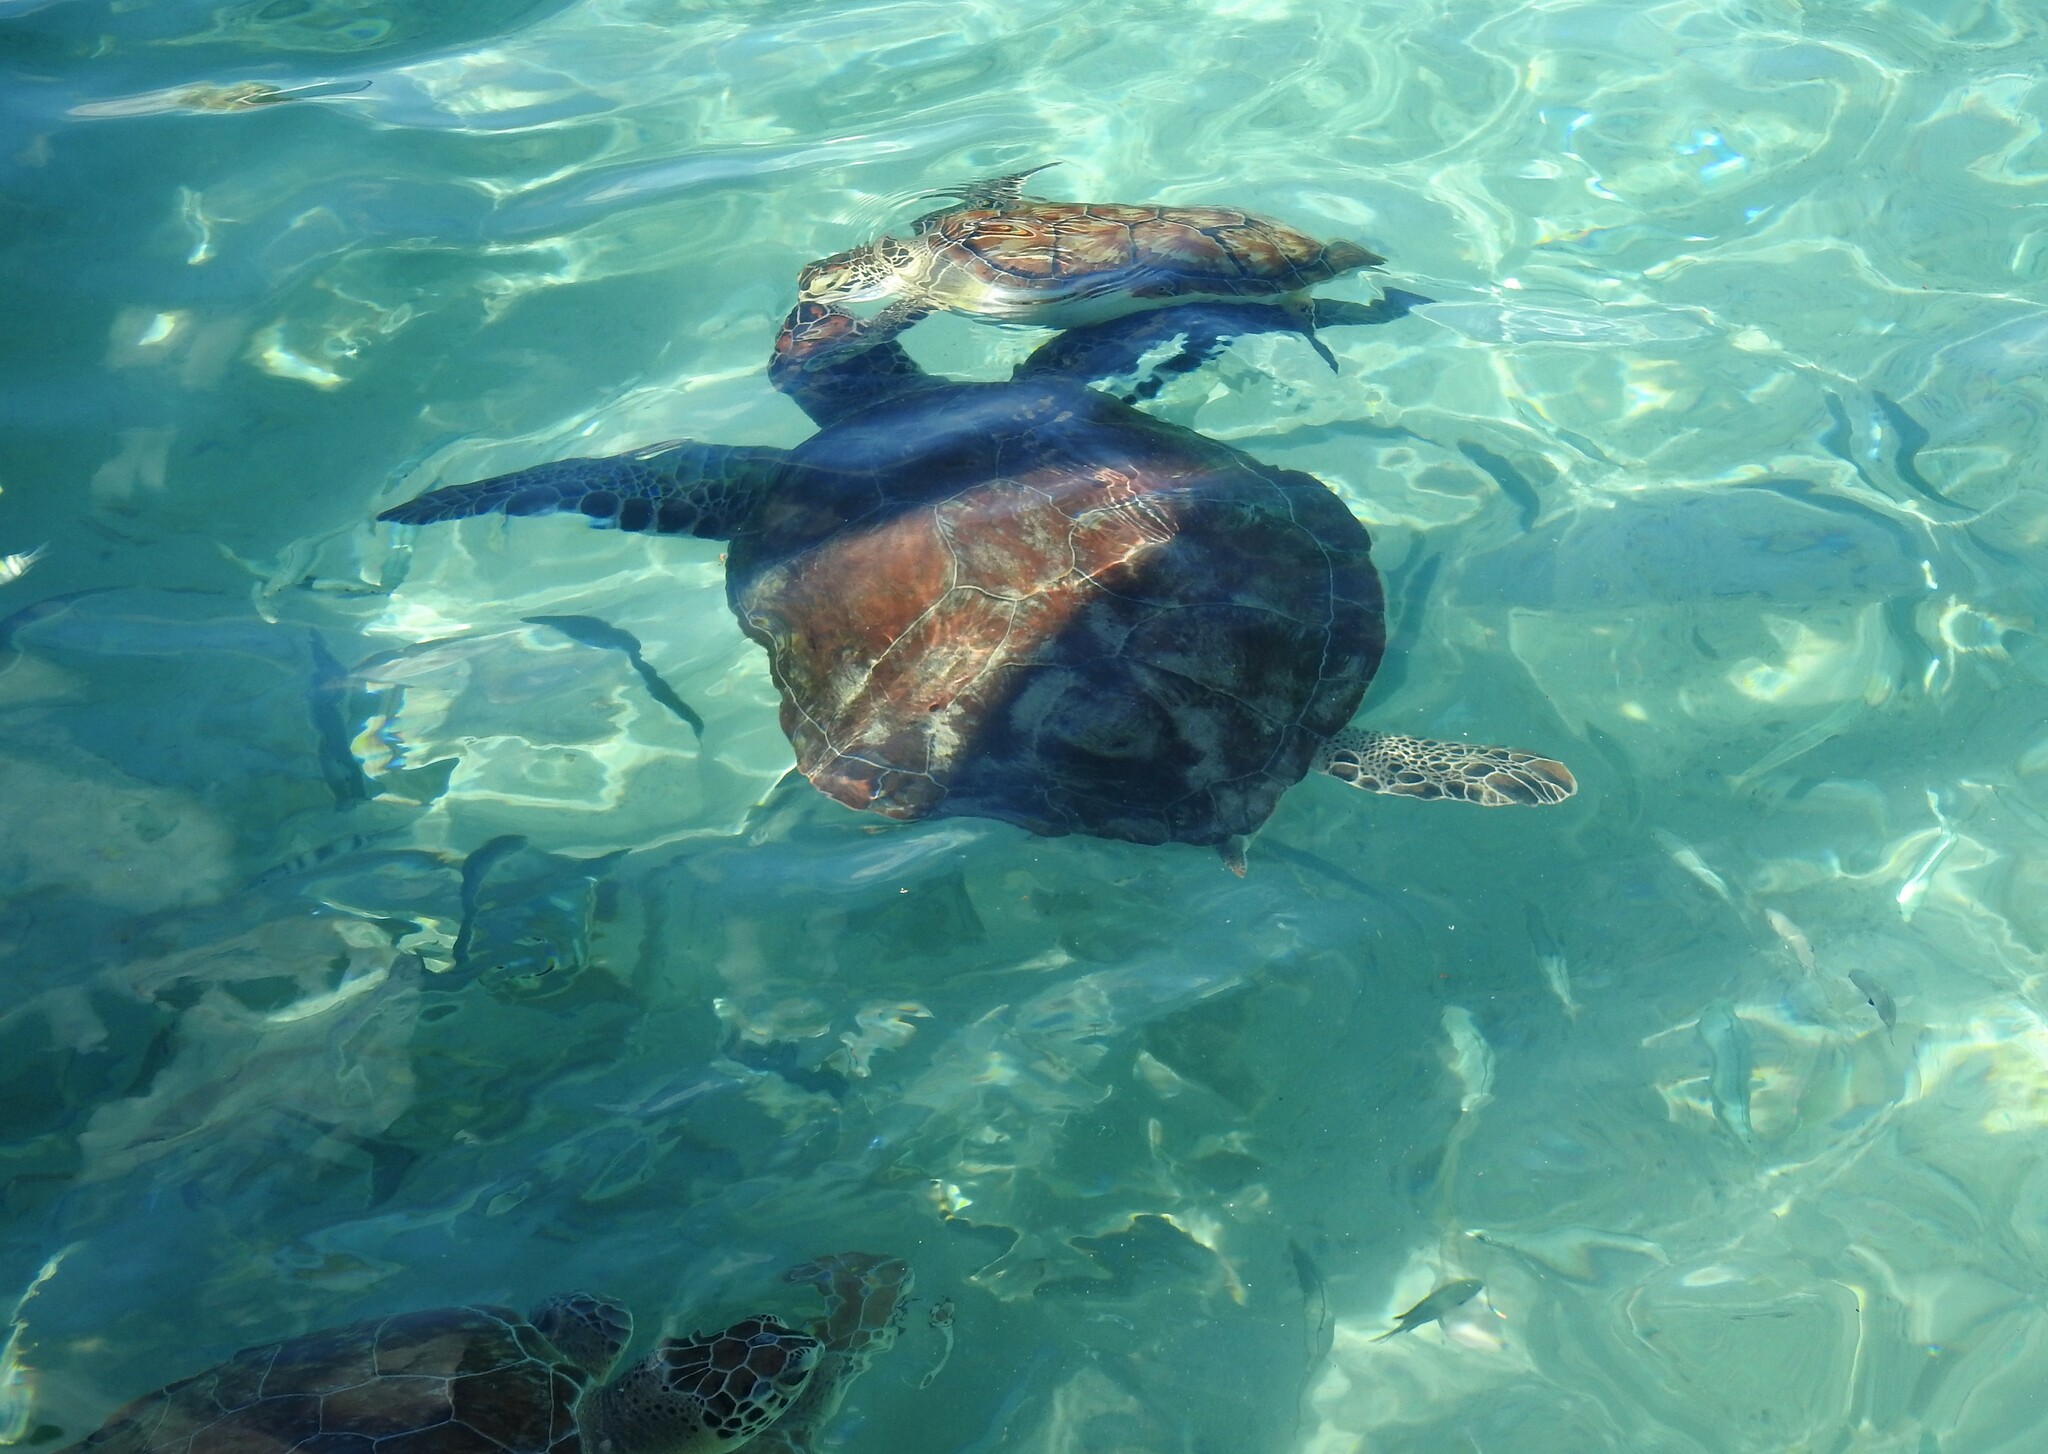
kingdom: Animalia
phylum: Chordata
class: Testudines
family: Cheloniidae
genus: Chelonia
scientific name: Chelonia mydas
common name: Green turtle
